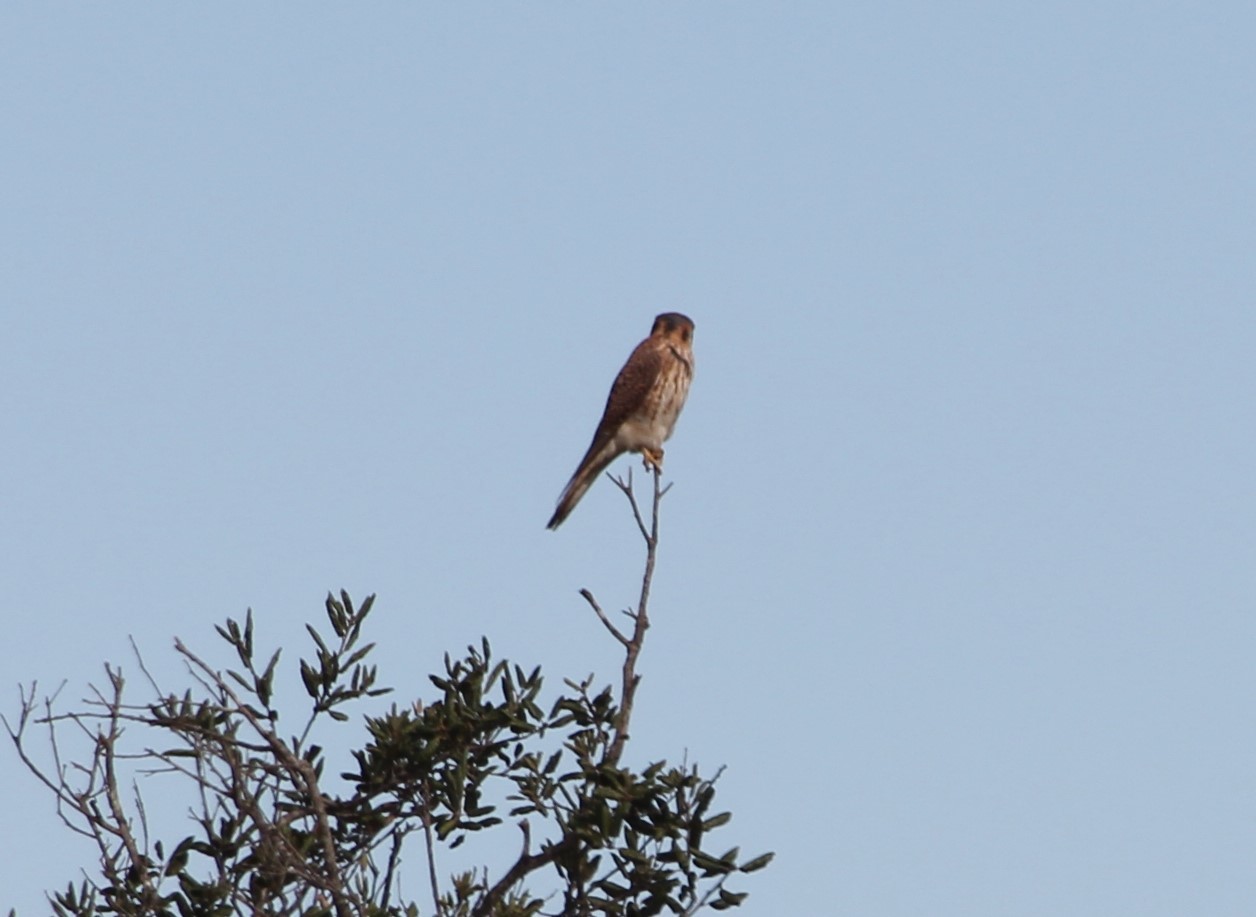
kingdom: Animalia
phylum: Chordata
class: Aves
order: Falconiformes
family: Falconidae
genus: Falco
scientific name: Falco sparverius
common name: American kestrel
